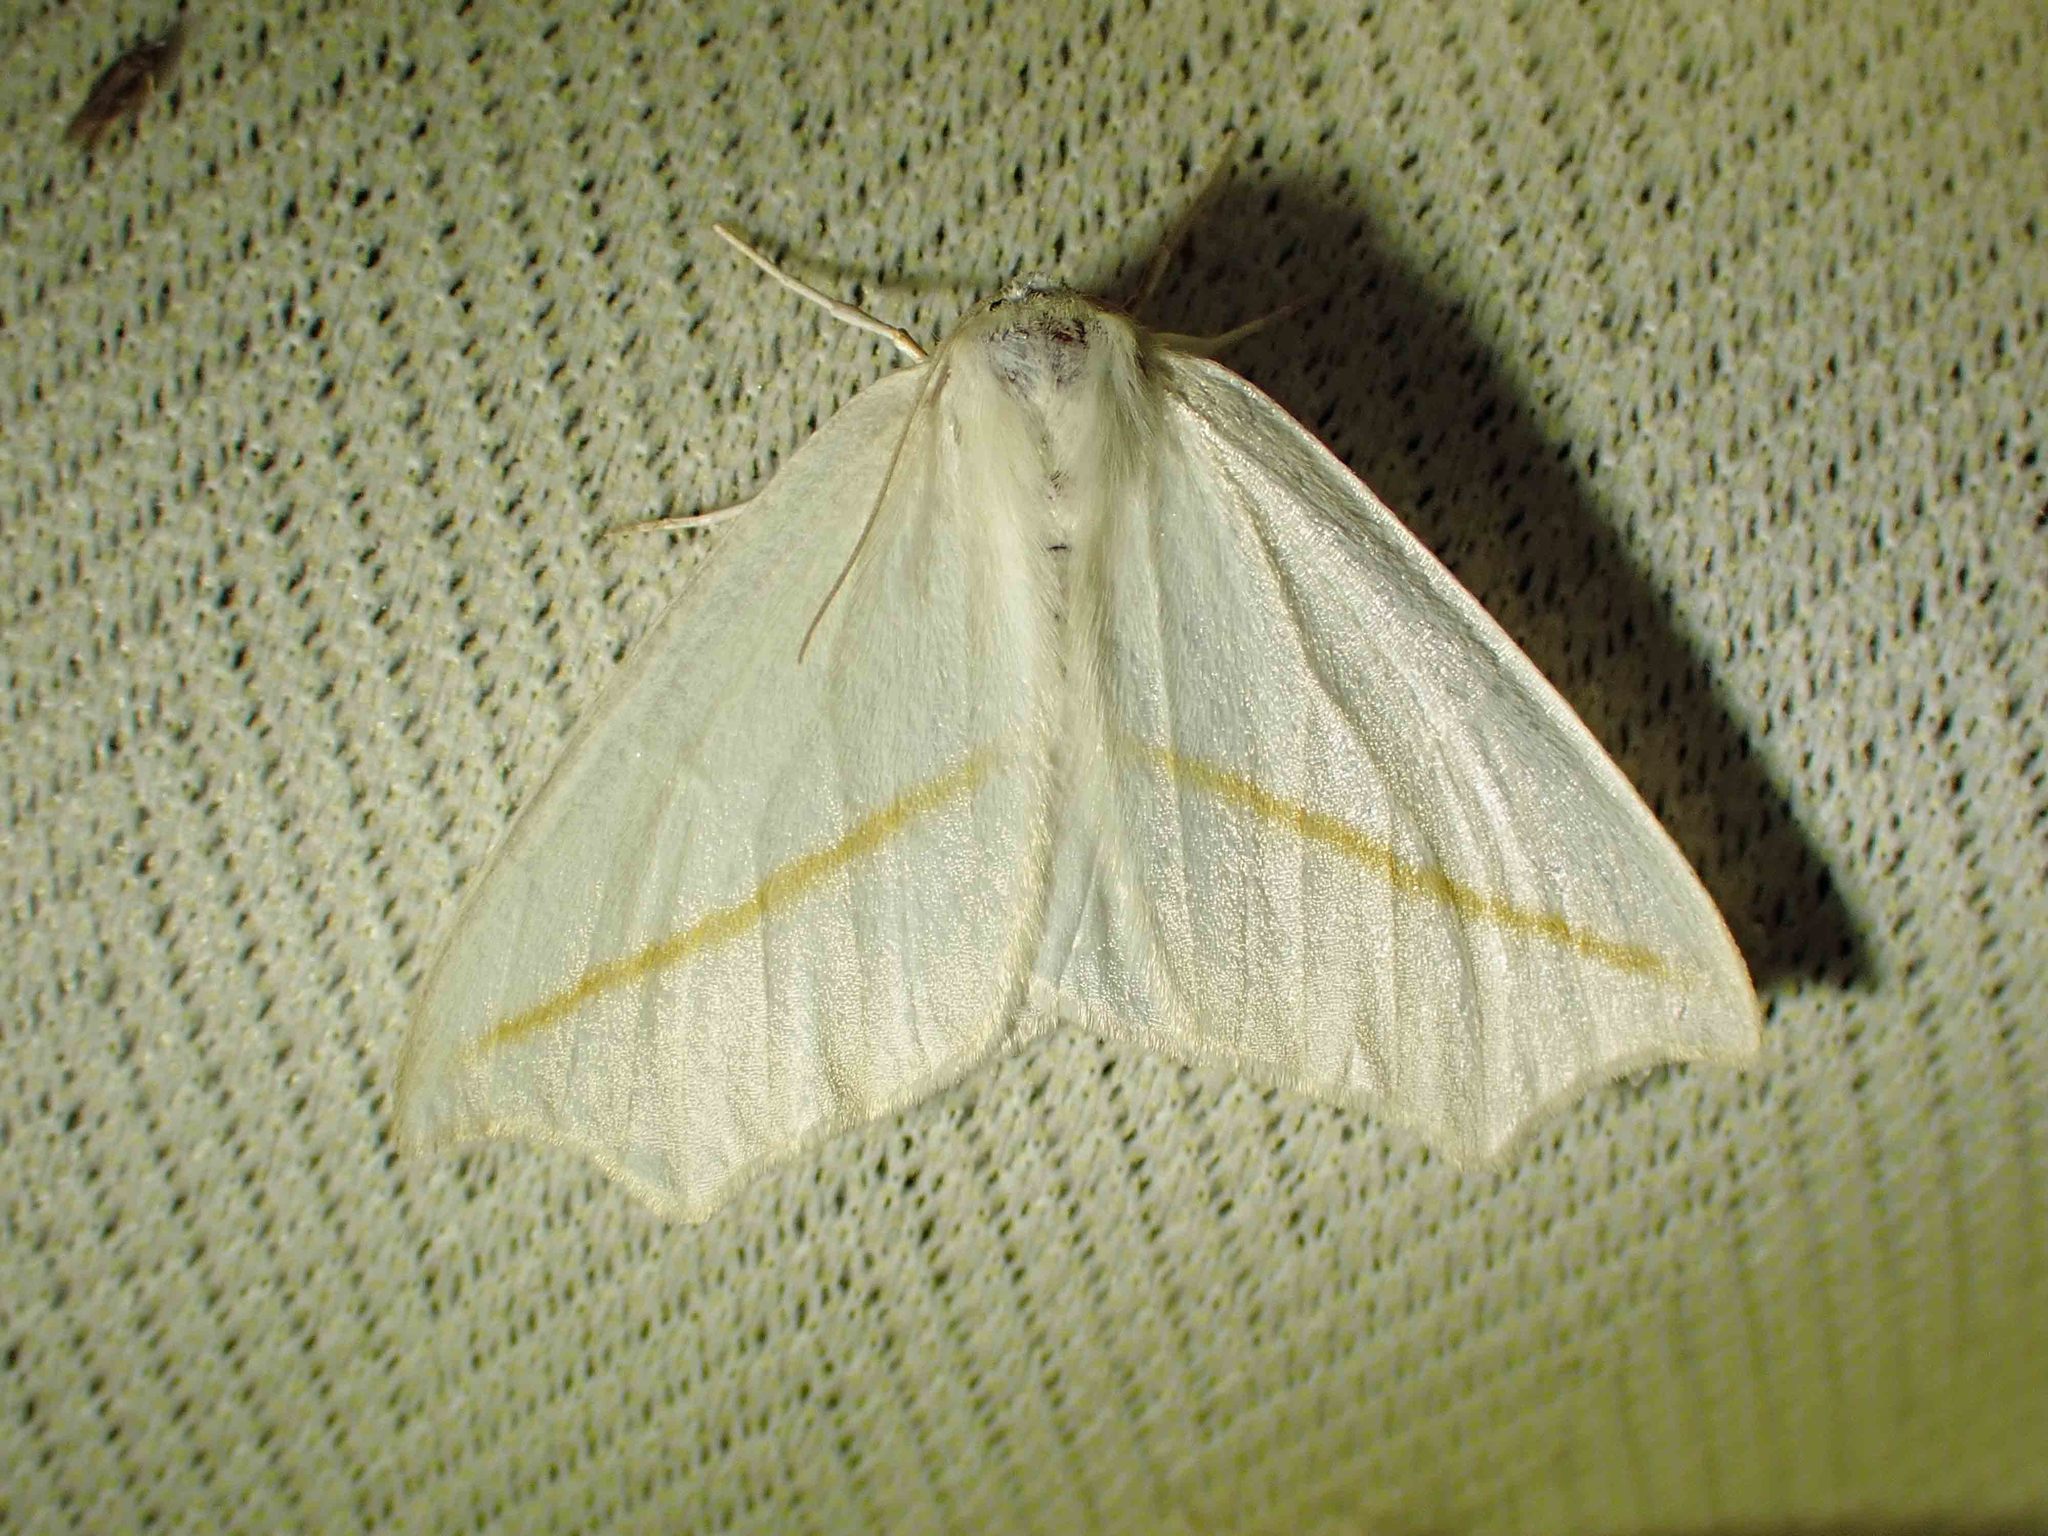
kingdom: Animalia
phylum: Arthropoda
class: Insecta
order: Lepidoptera
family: Geometridae
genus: Tetracis
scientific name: Tetracis cachexiata
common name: White slant-line
